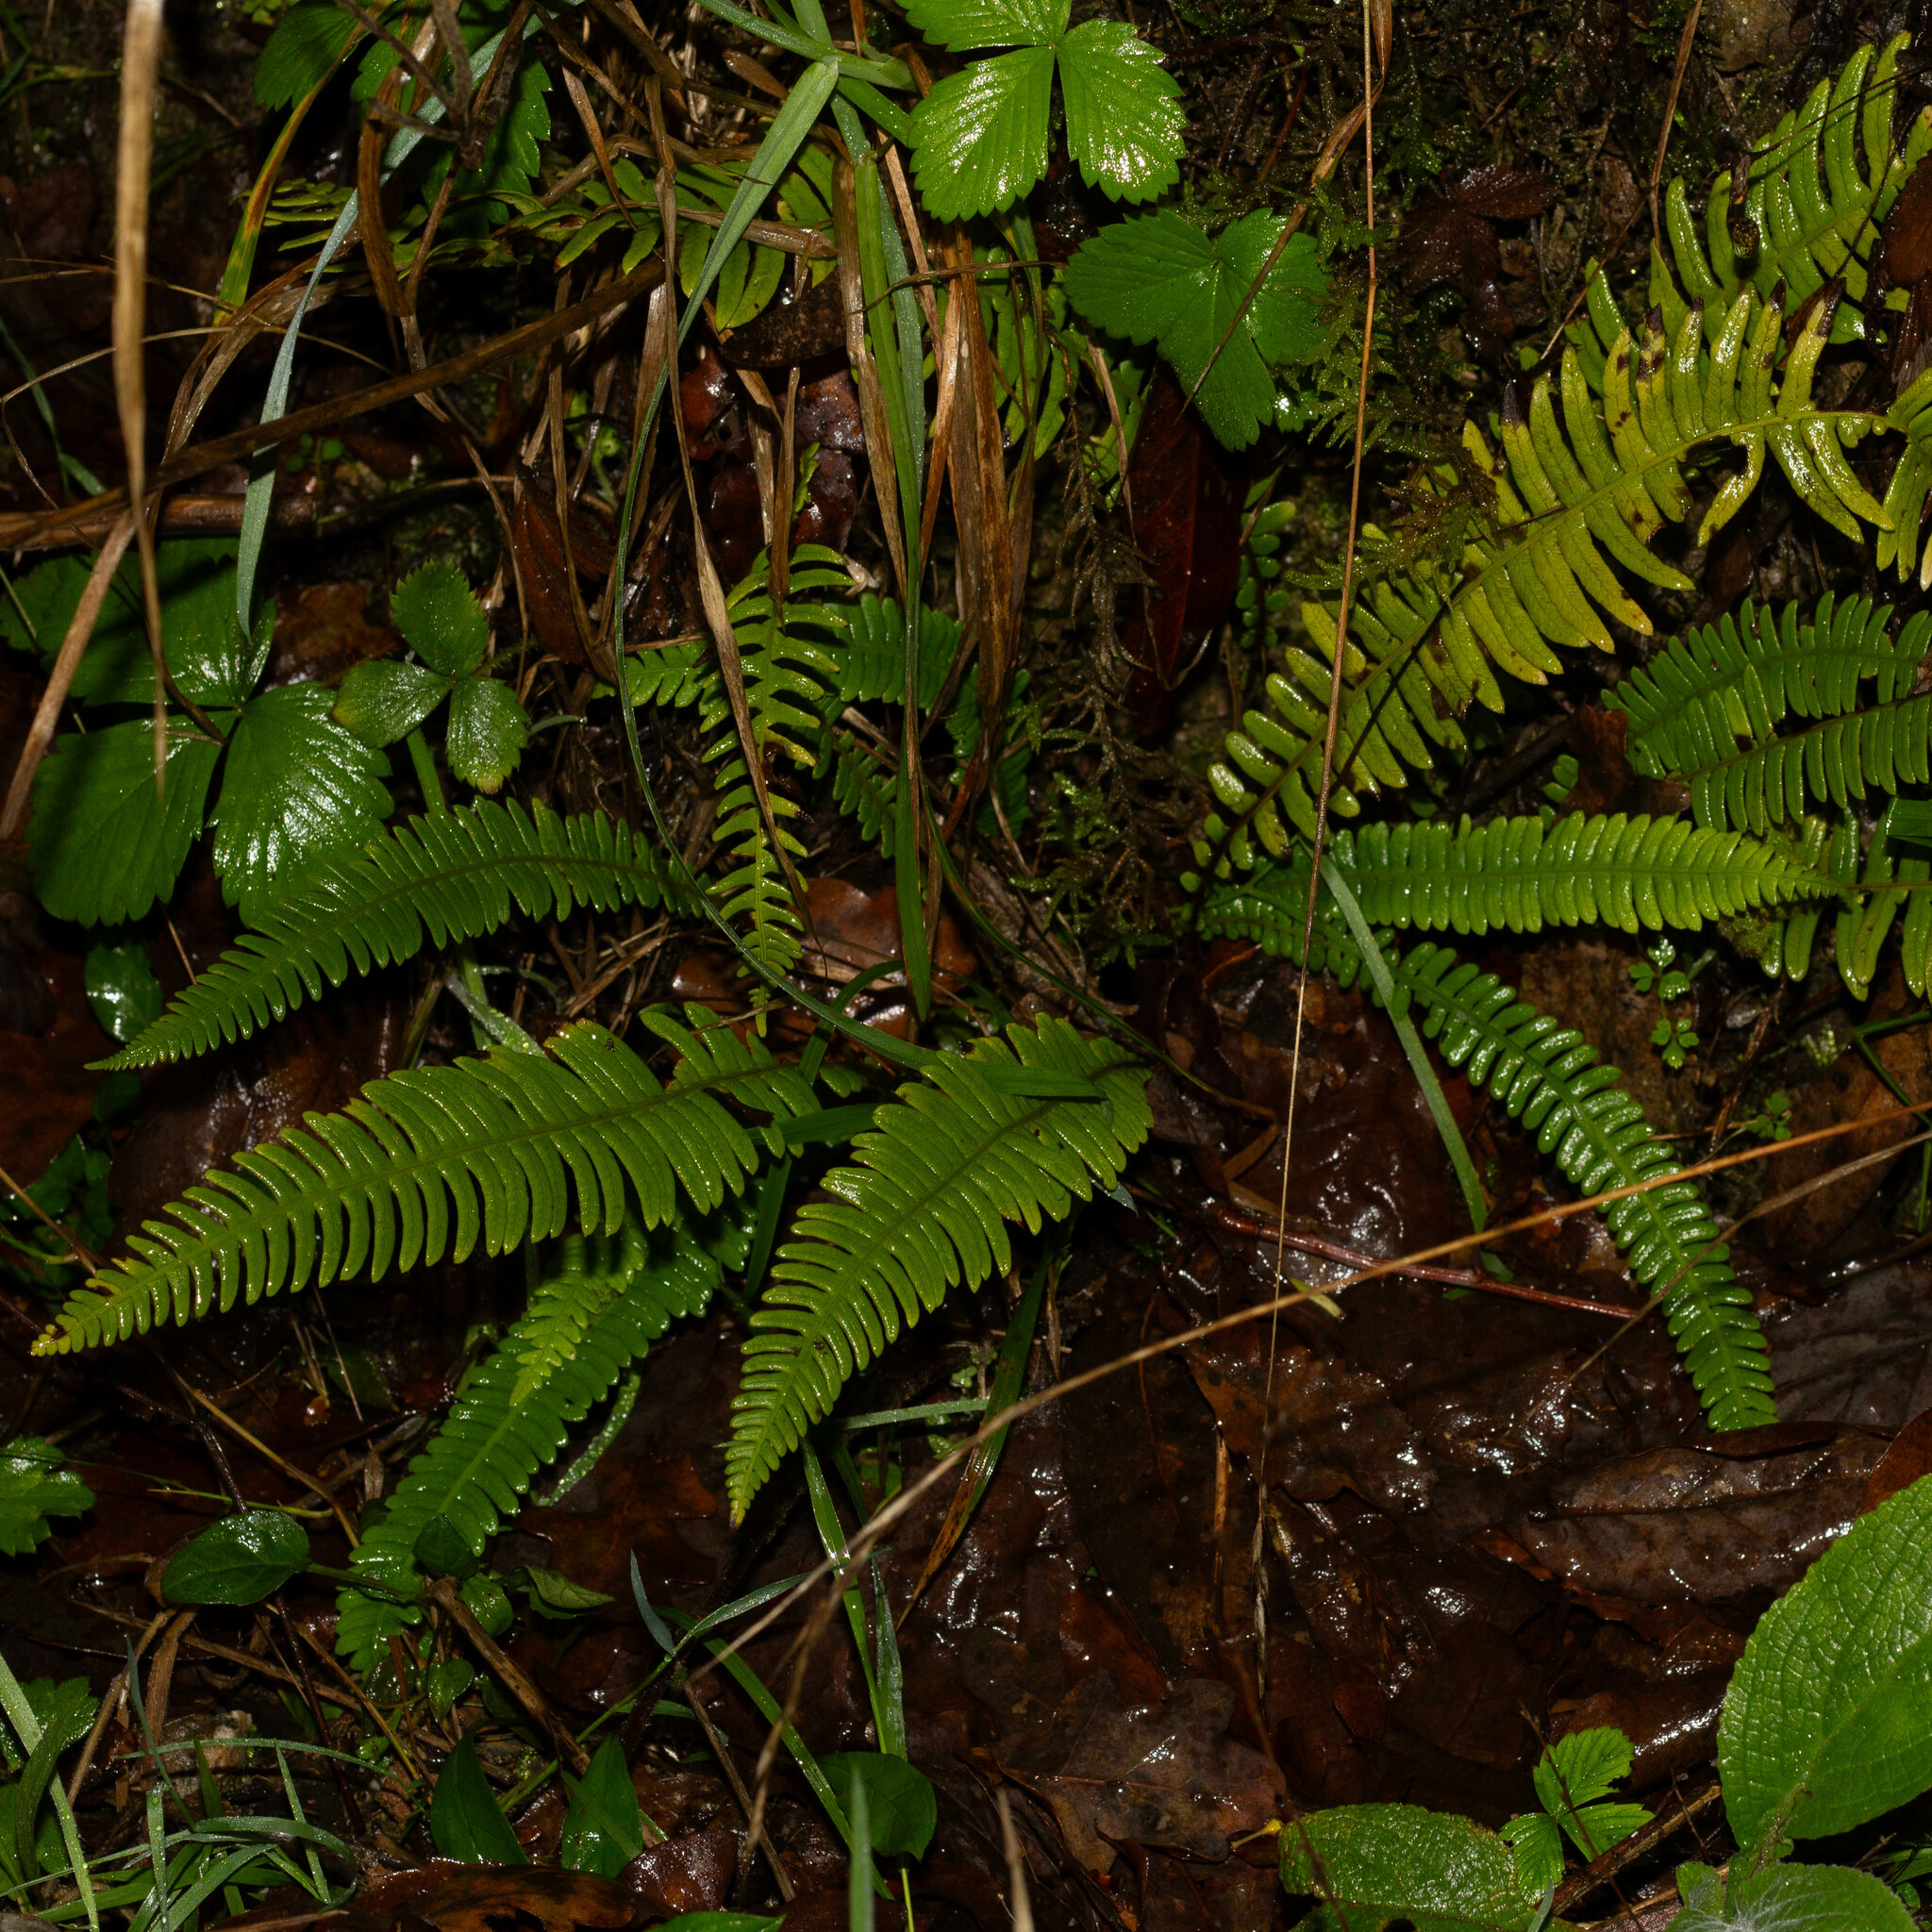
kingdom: Plantae
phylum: Tracheophyta
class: Polypodiopsida
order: Polypodiales
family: Blechnaceae
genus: Struthiopteris
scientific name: Struthiopteris spicant
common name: Deer fern
